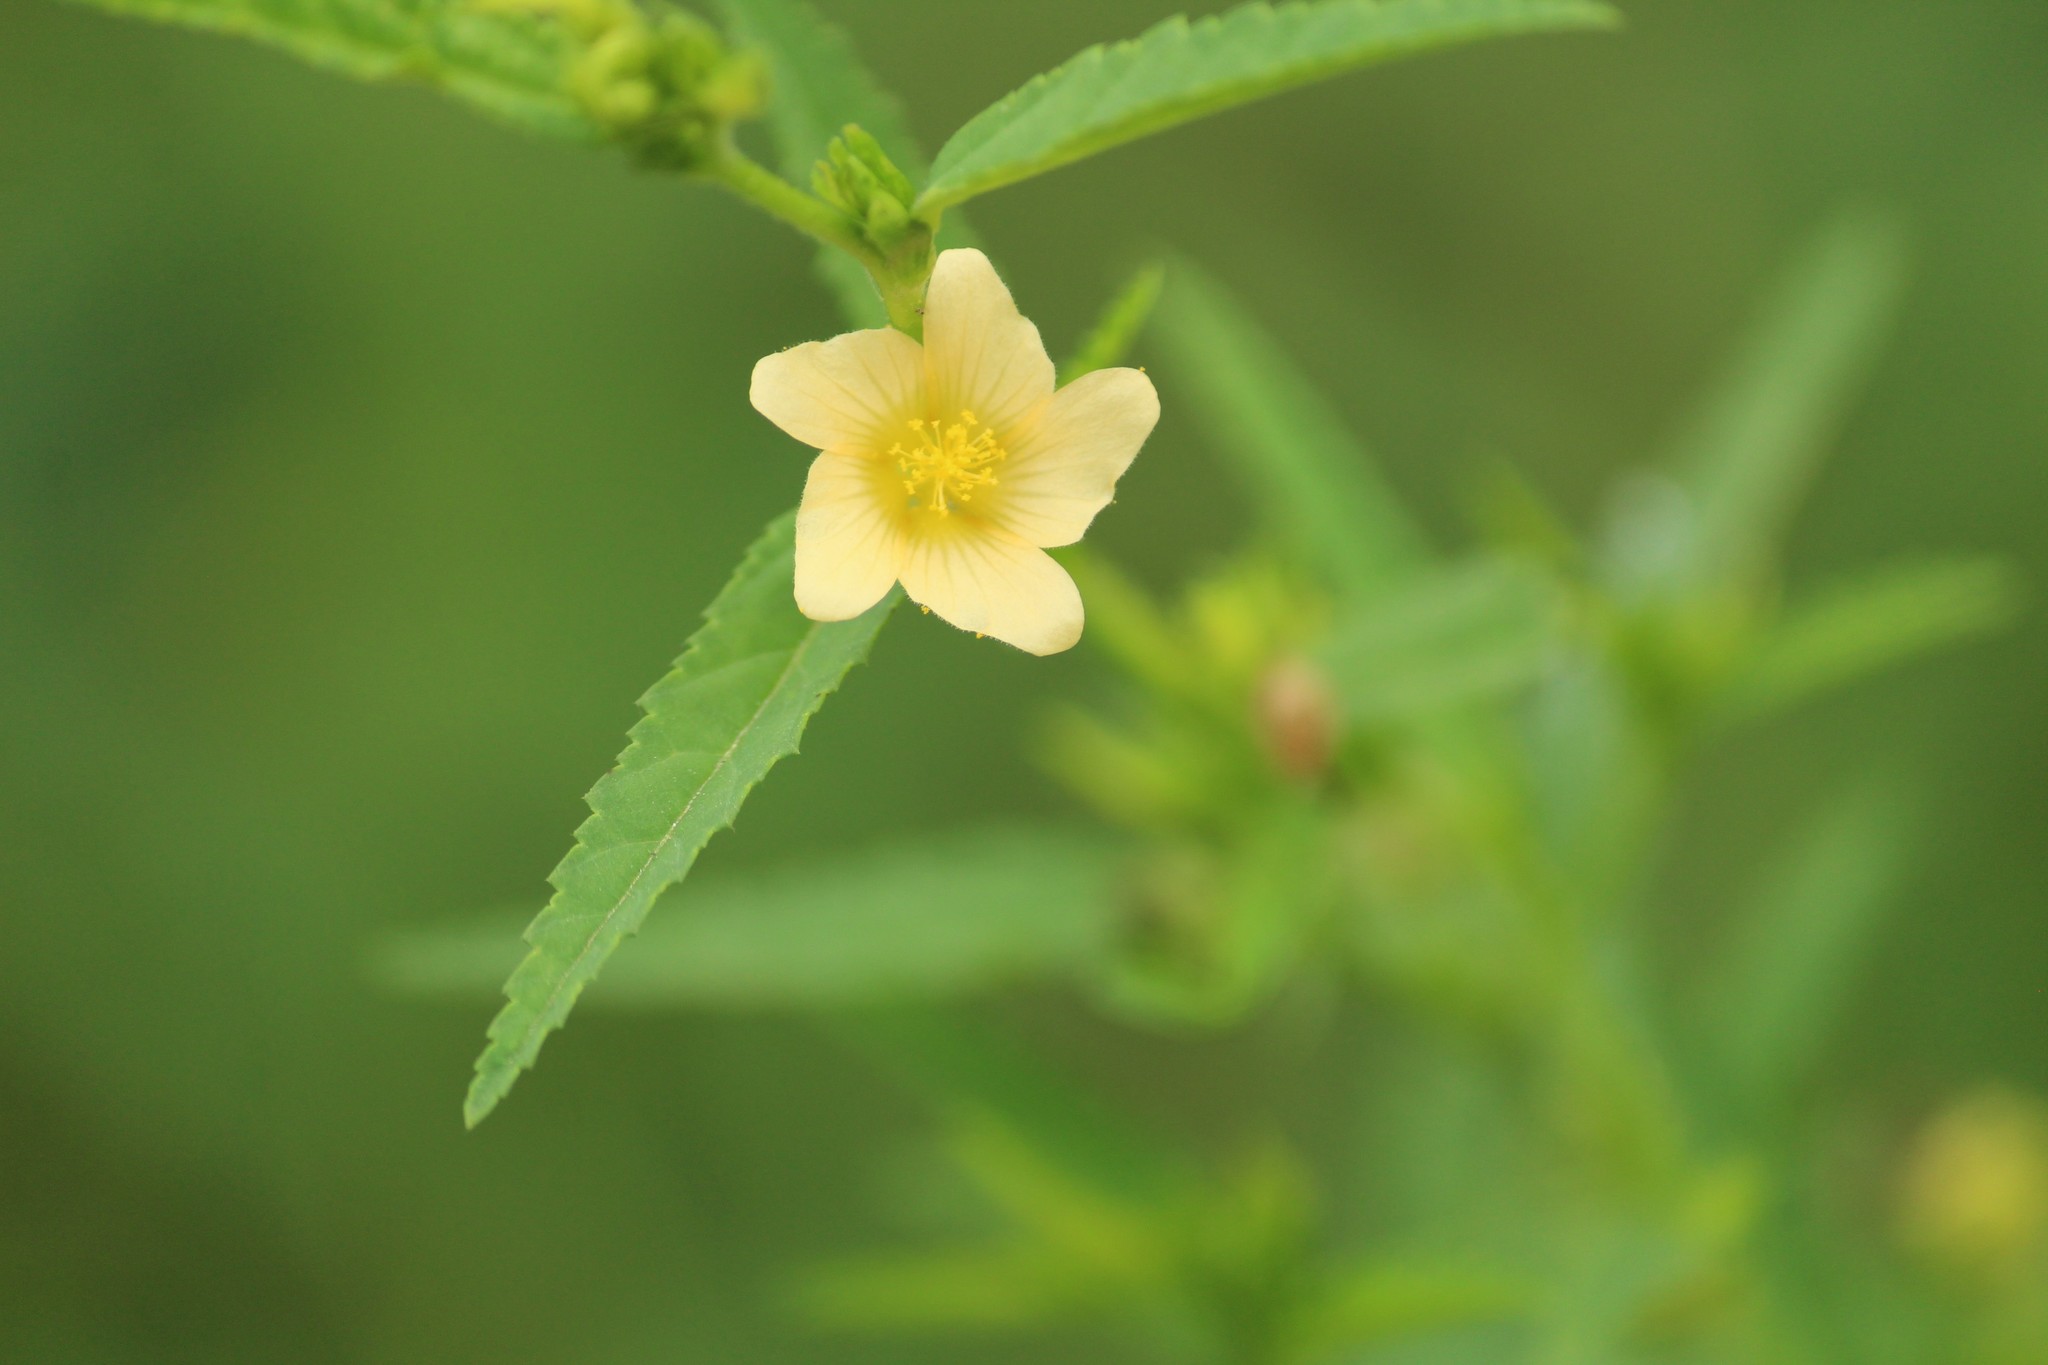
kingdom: Plantae
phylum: Tracheophyta
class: Magnoliopsida
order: Malvales
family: Malvaceae
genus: Sida
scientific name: Sida acuta
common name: Common wireweed
